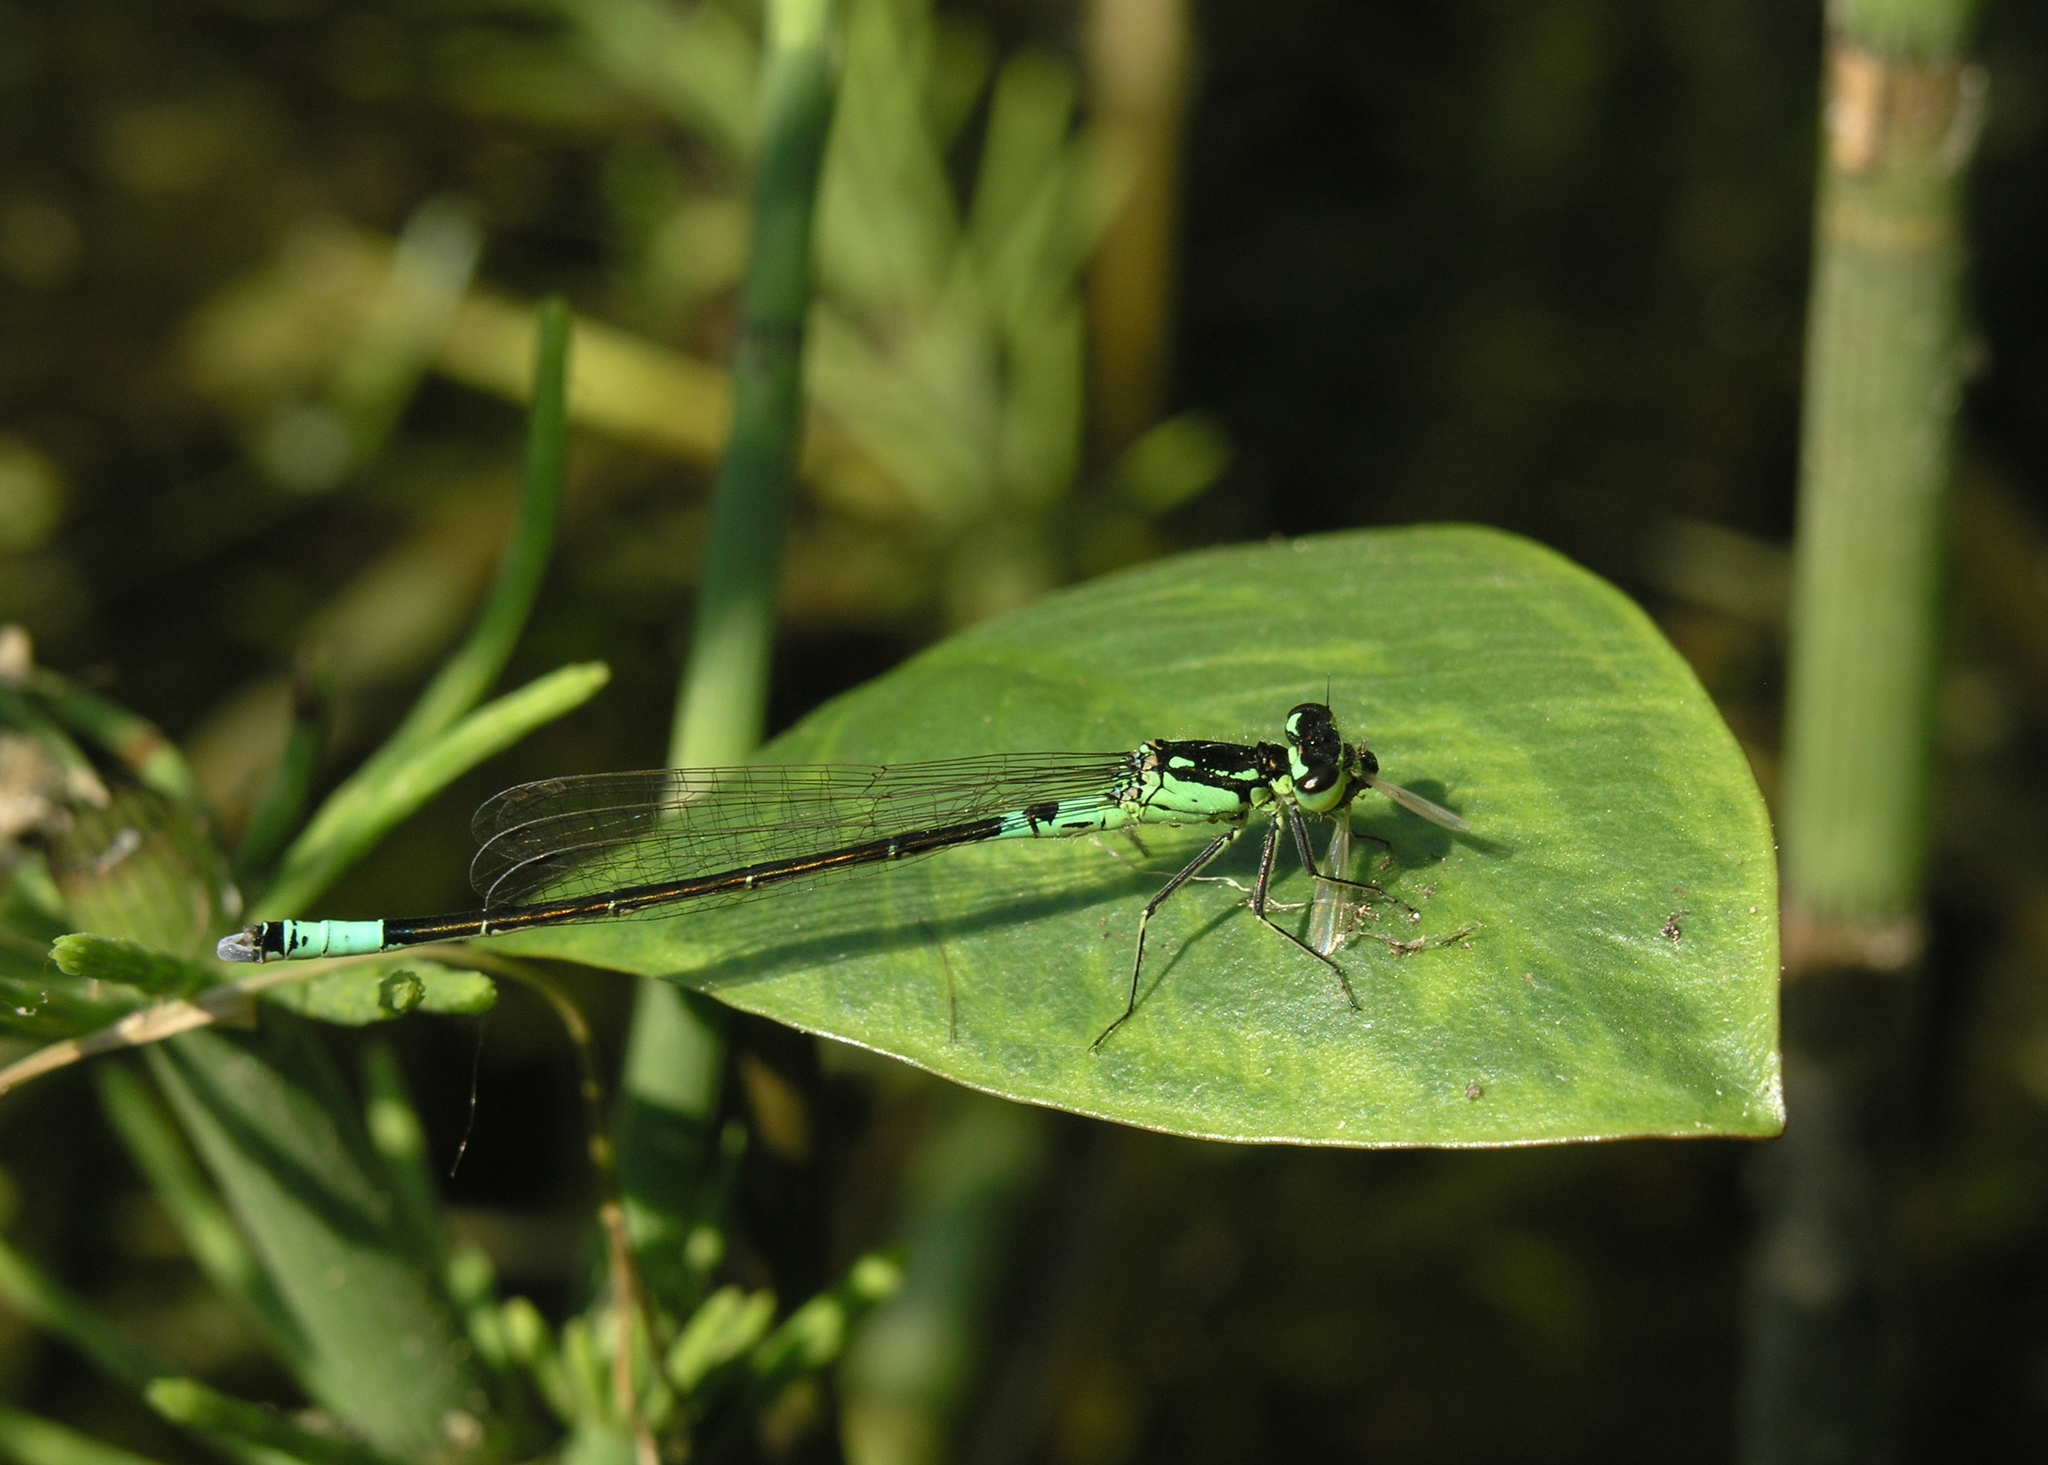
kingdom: Animalia
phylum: Arthropoda
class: Insecta
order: Odonata
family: Coenagrionidae
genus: Coenagrion
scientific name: Coenagrion armatum
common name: Dark bluet
